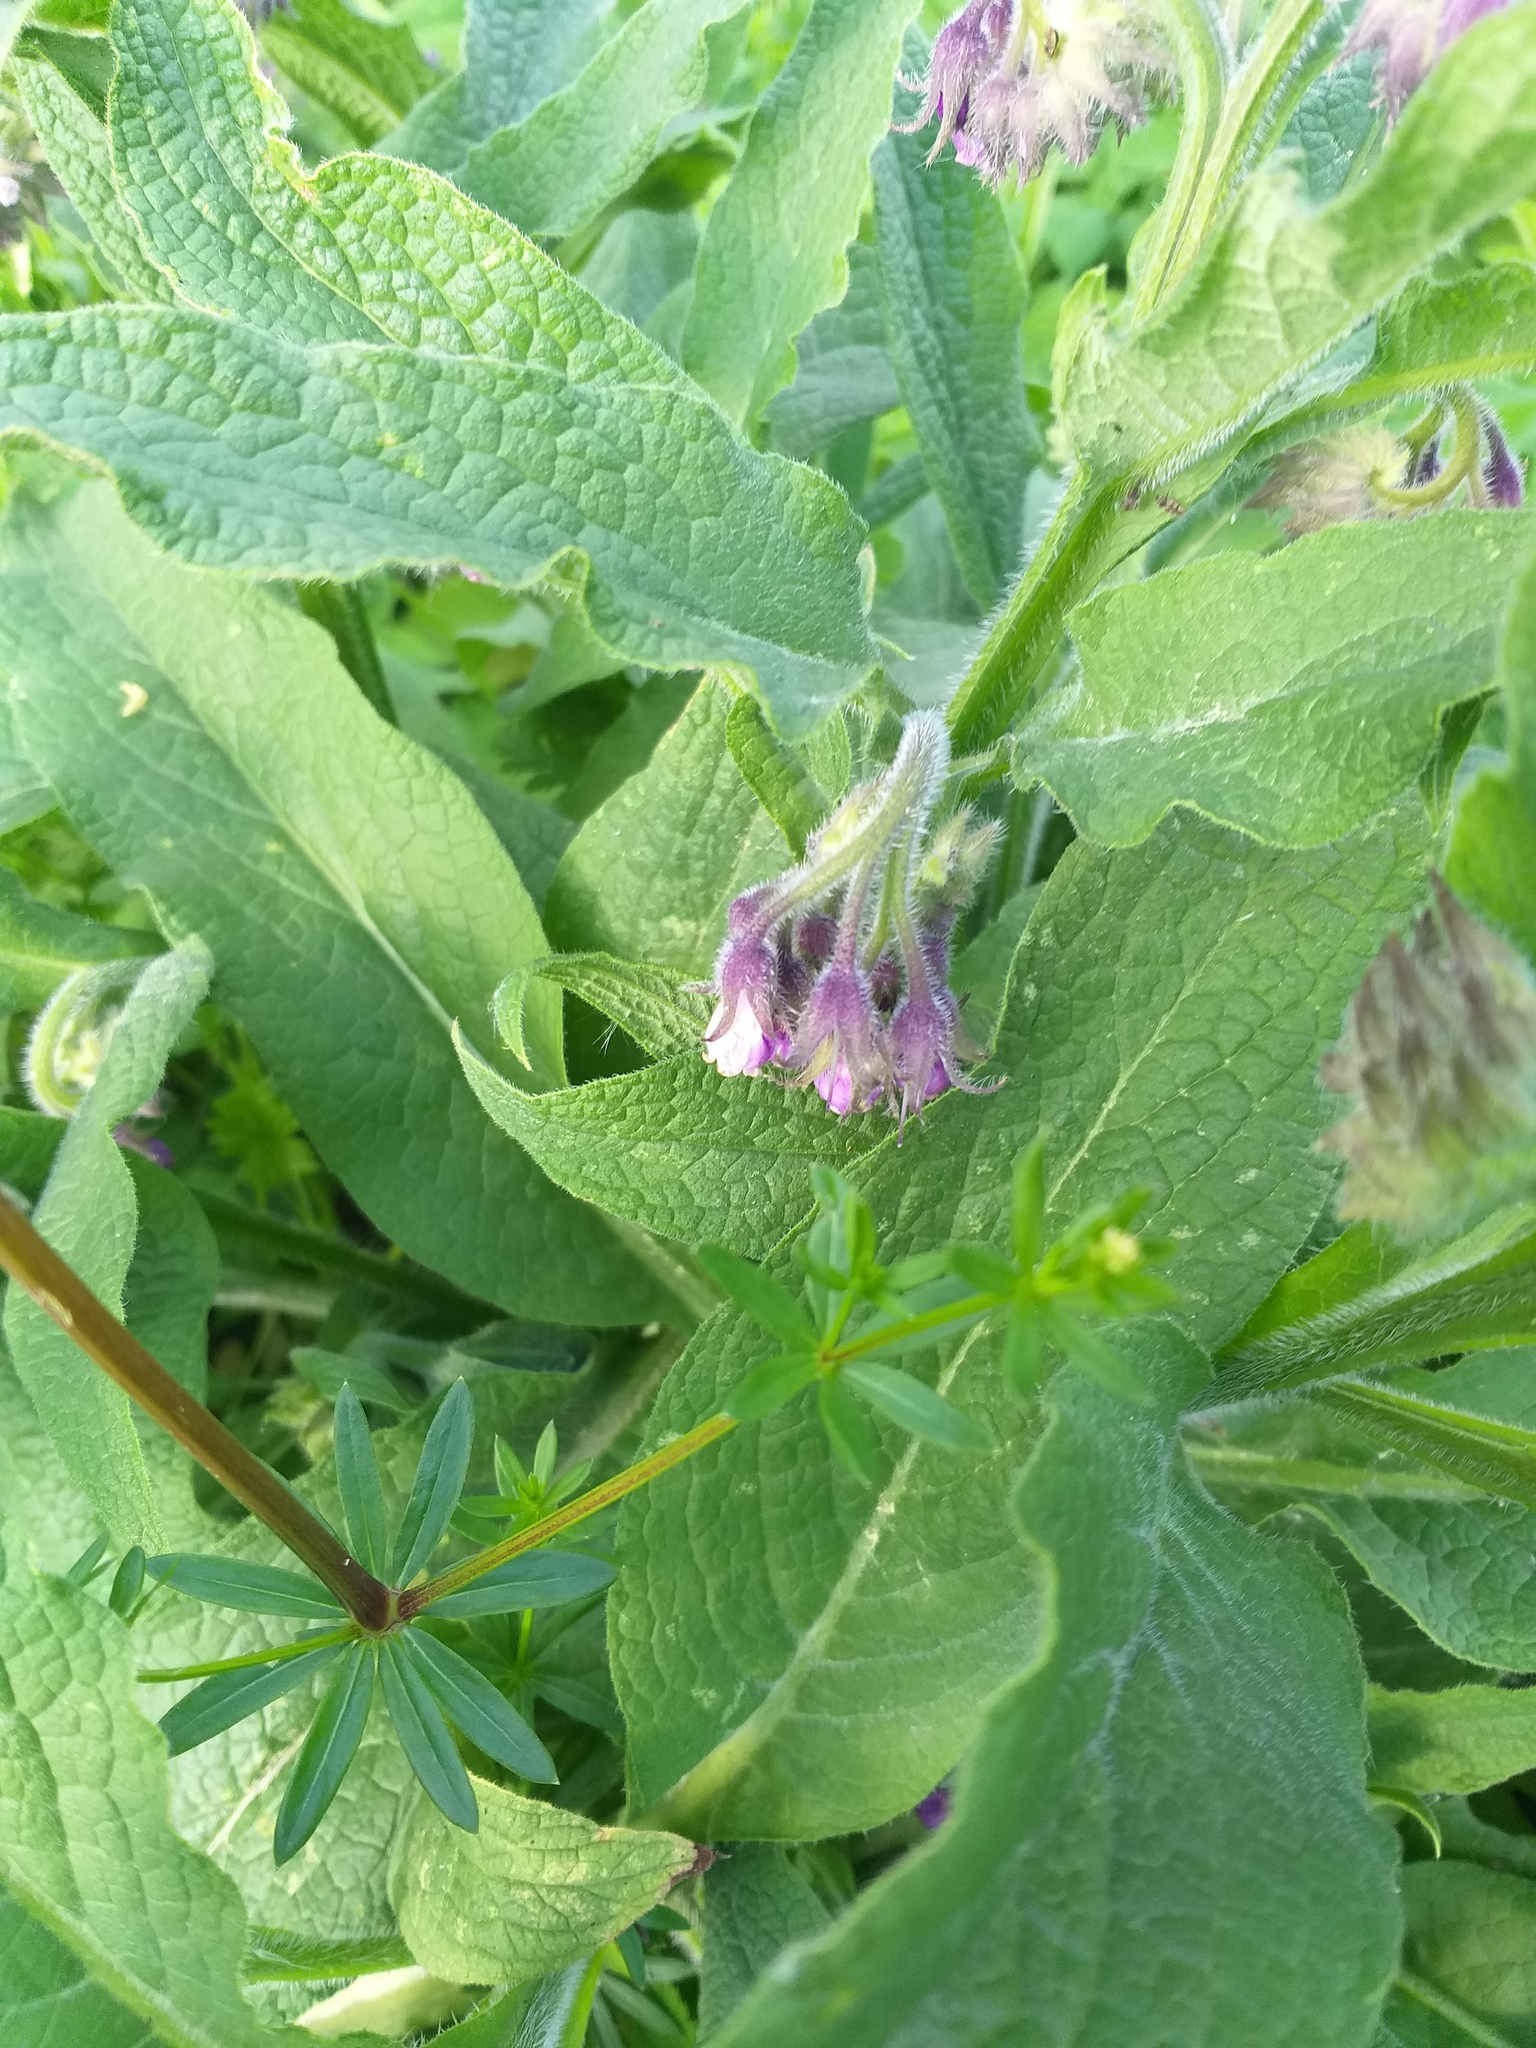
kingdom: Plantae
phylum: Tracheophyta
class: Magnoliopsida
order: Boraginales
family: Boraginaceae
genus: Symphytum
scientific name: Symphytum officinale
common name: Common comfrey
